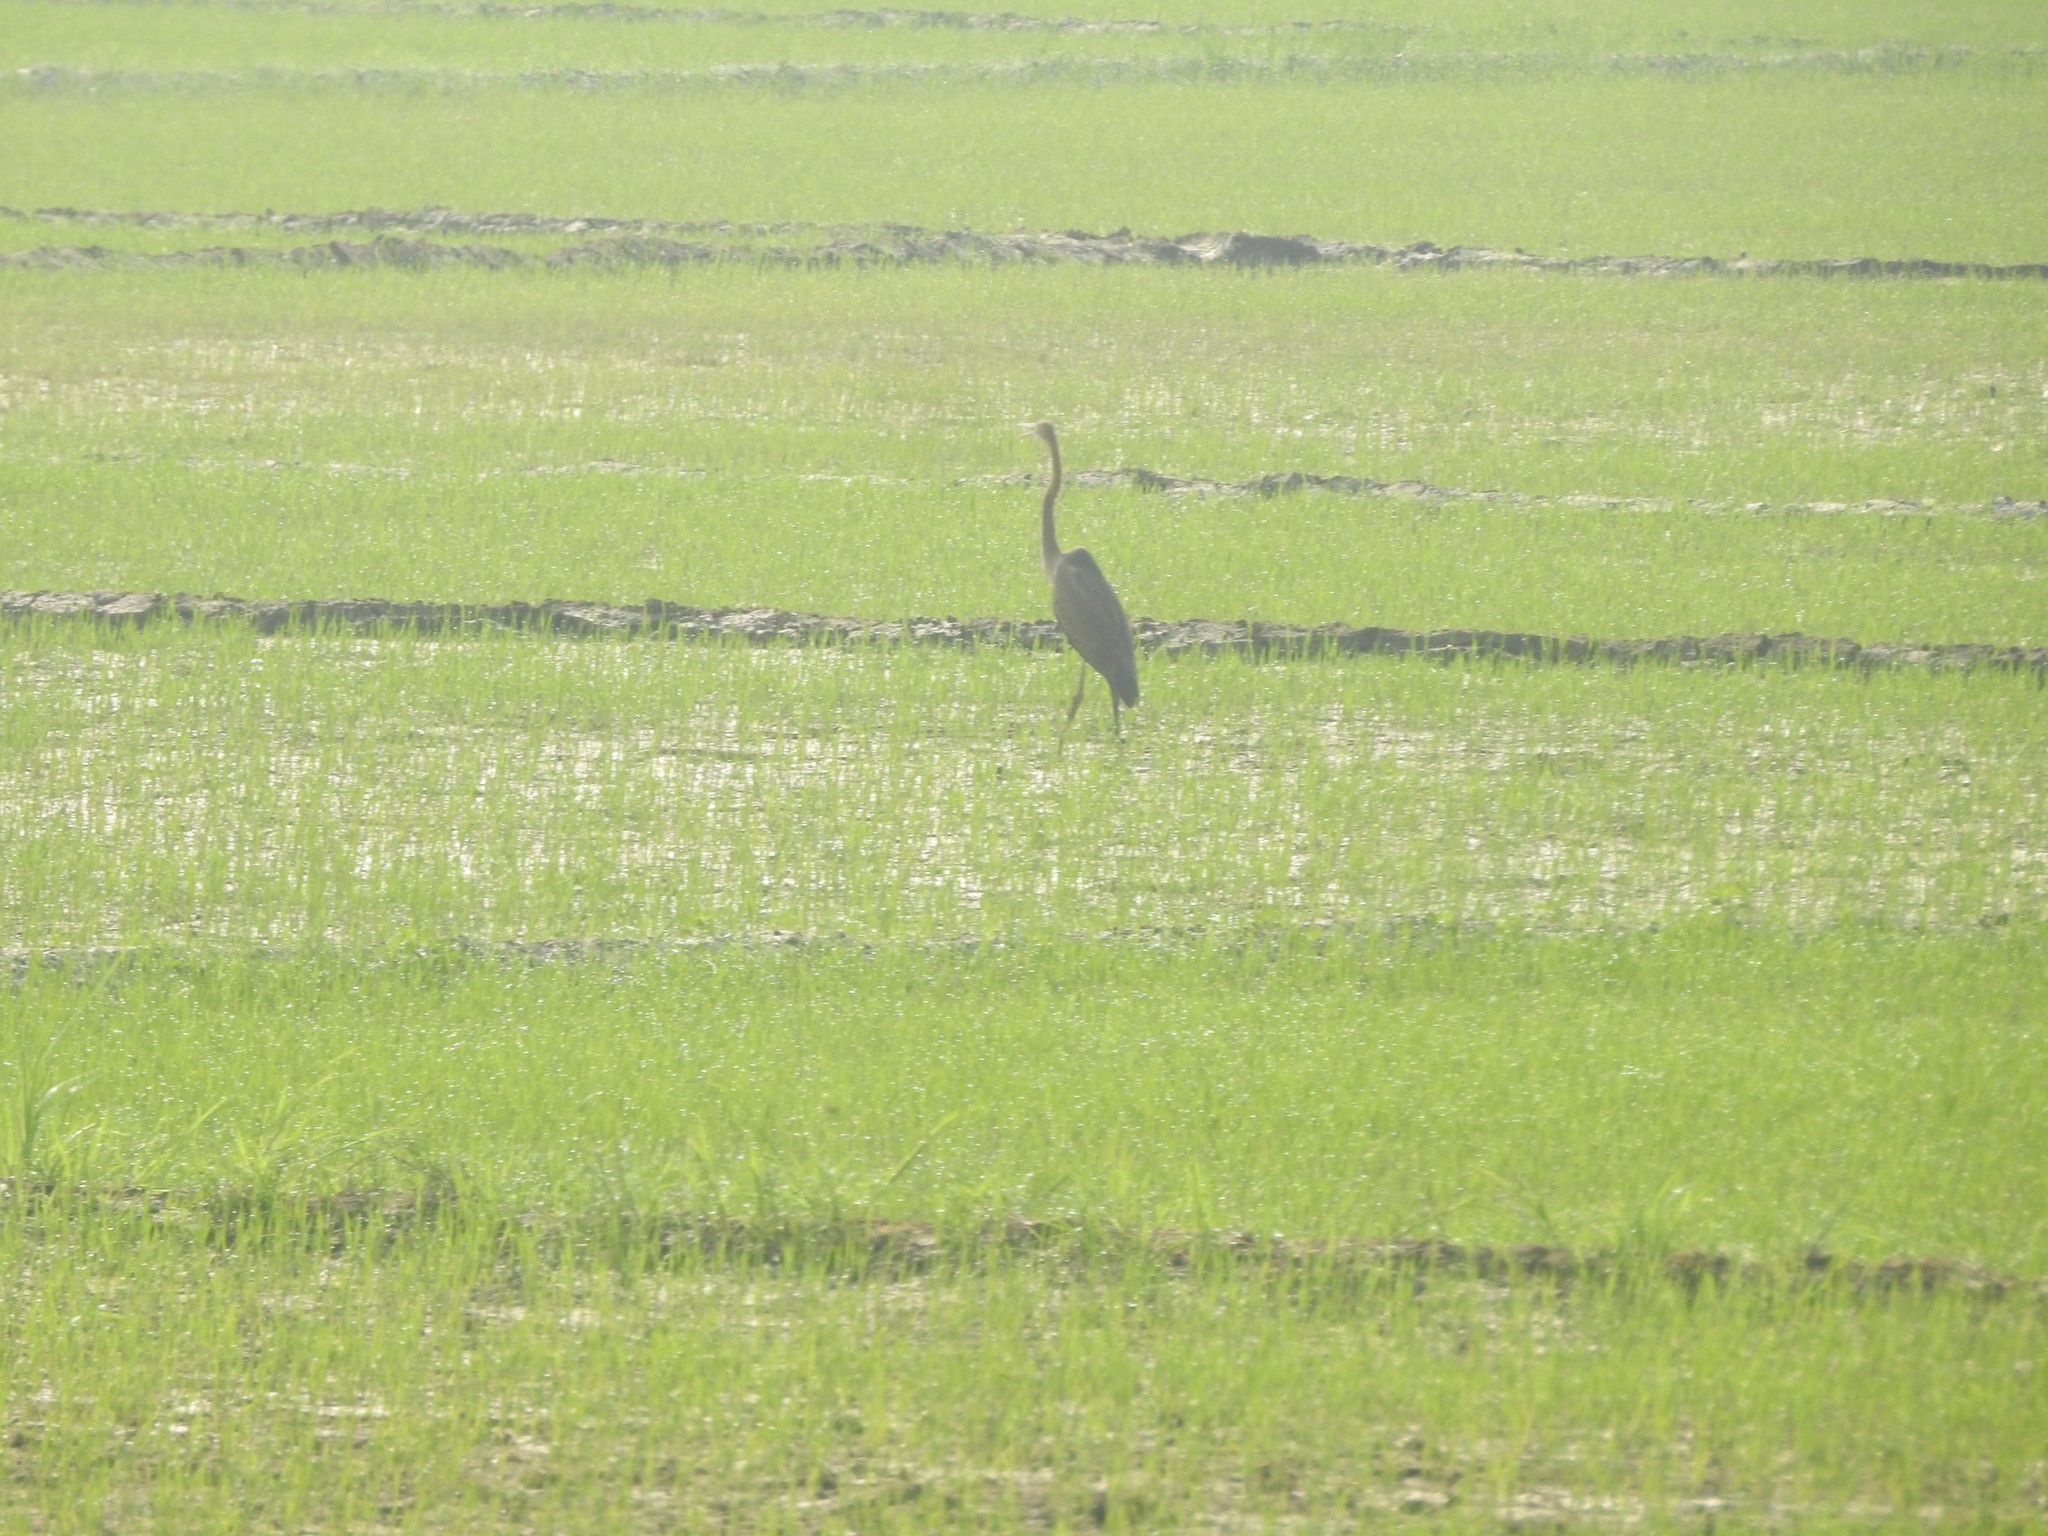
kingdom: Animalia
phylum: Chordata
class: Aves
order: Pelecaniformes
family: Ardeidae
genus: Ardea
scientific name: Ardea purpurea
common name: Purple heron
